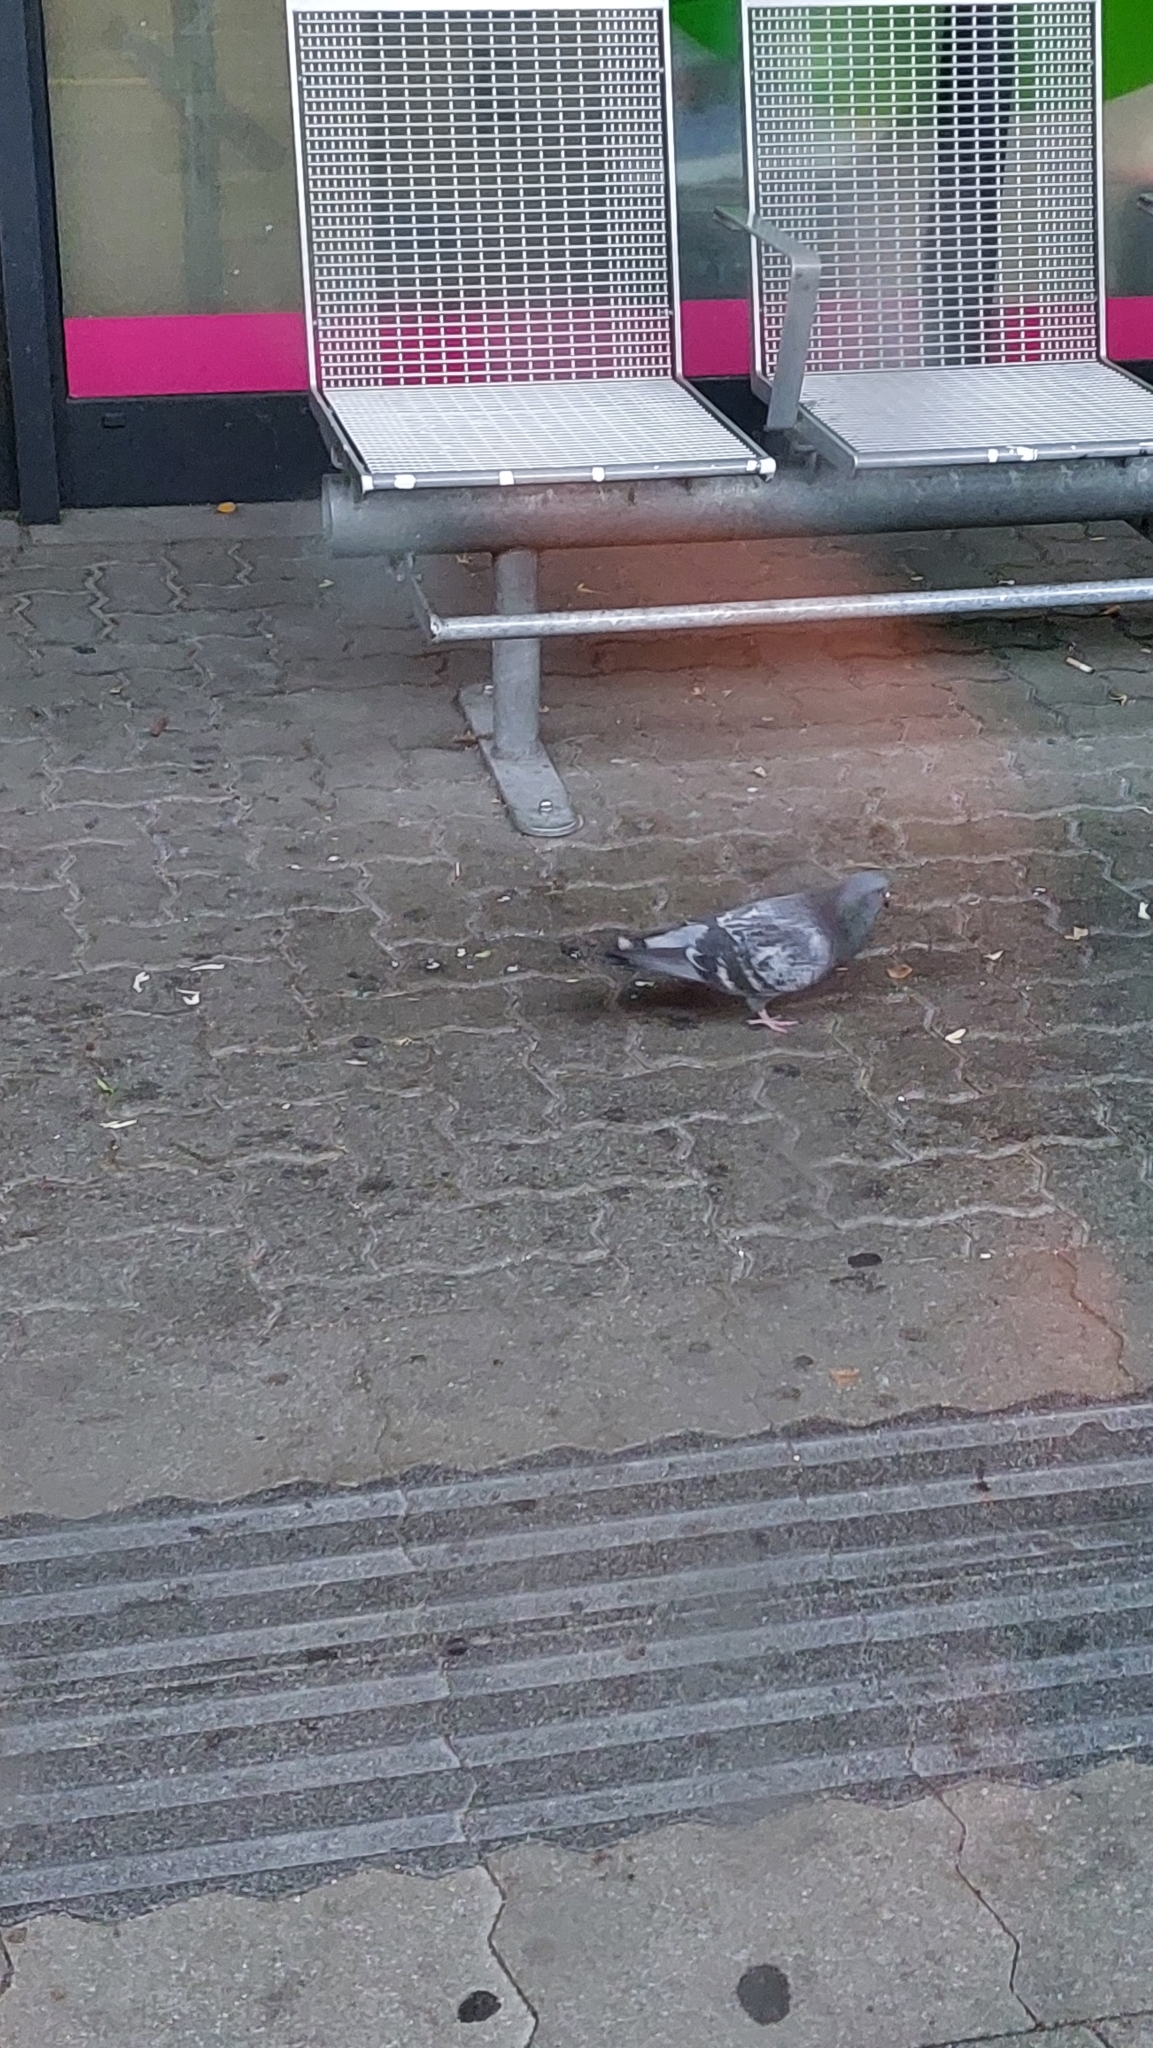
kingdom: Animalia
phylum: Chordata
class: Aves
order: Columbiformes
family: Columbidae
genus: Columba
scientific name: Columba livia
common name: Rock pigeon
